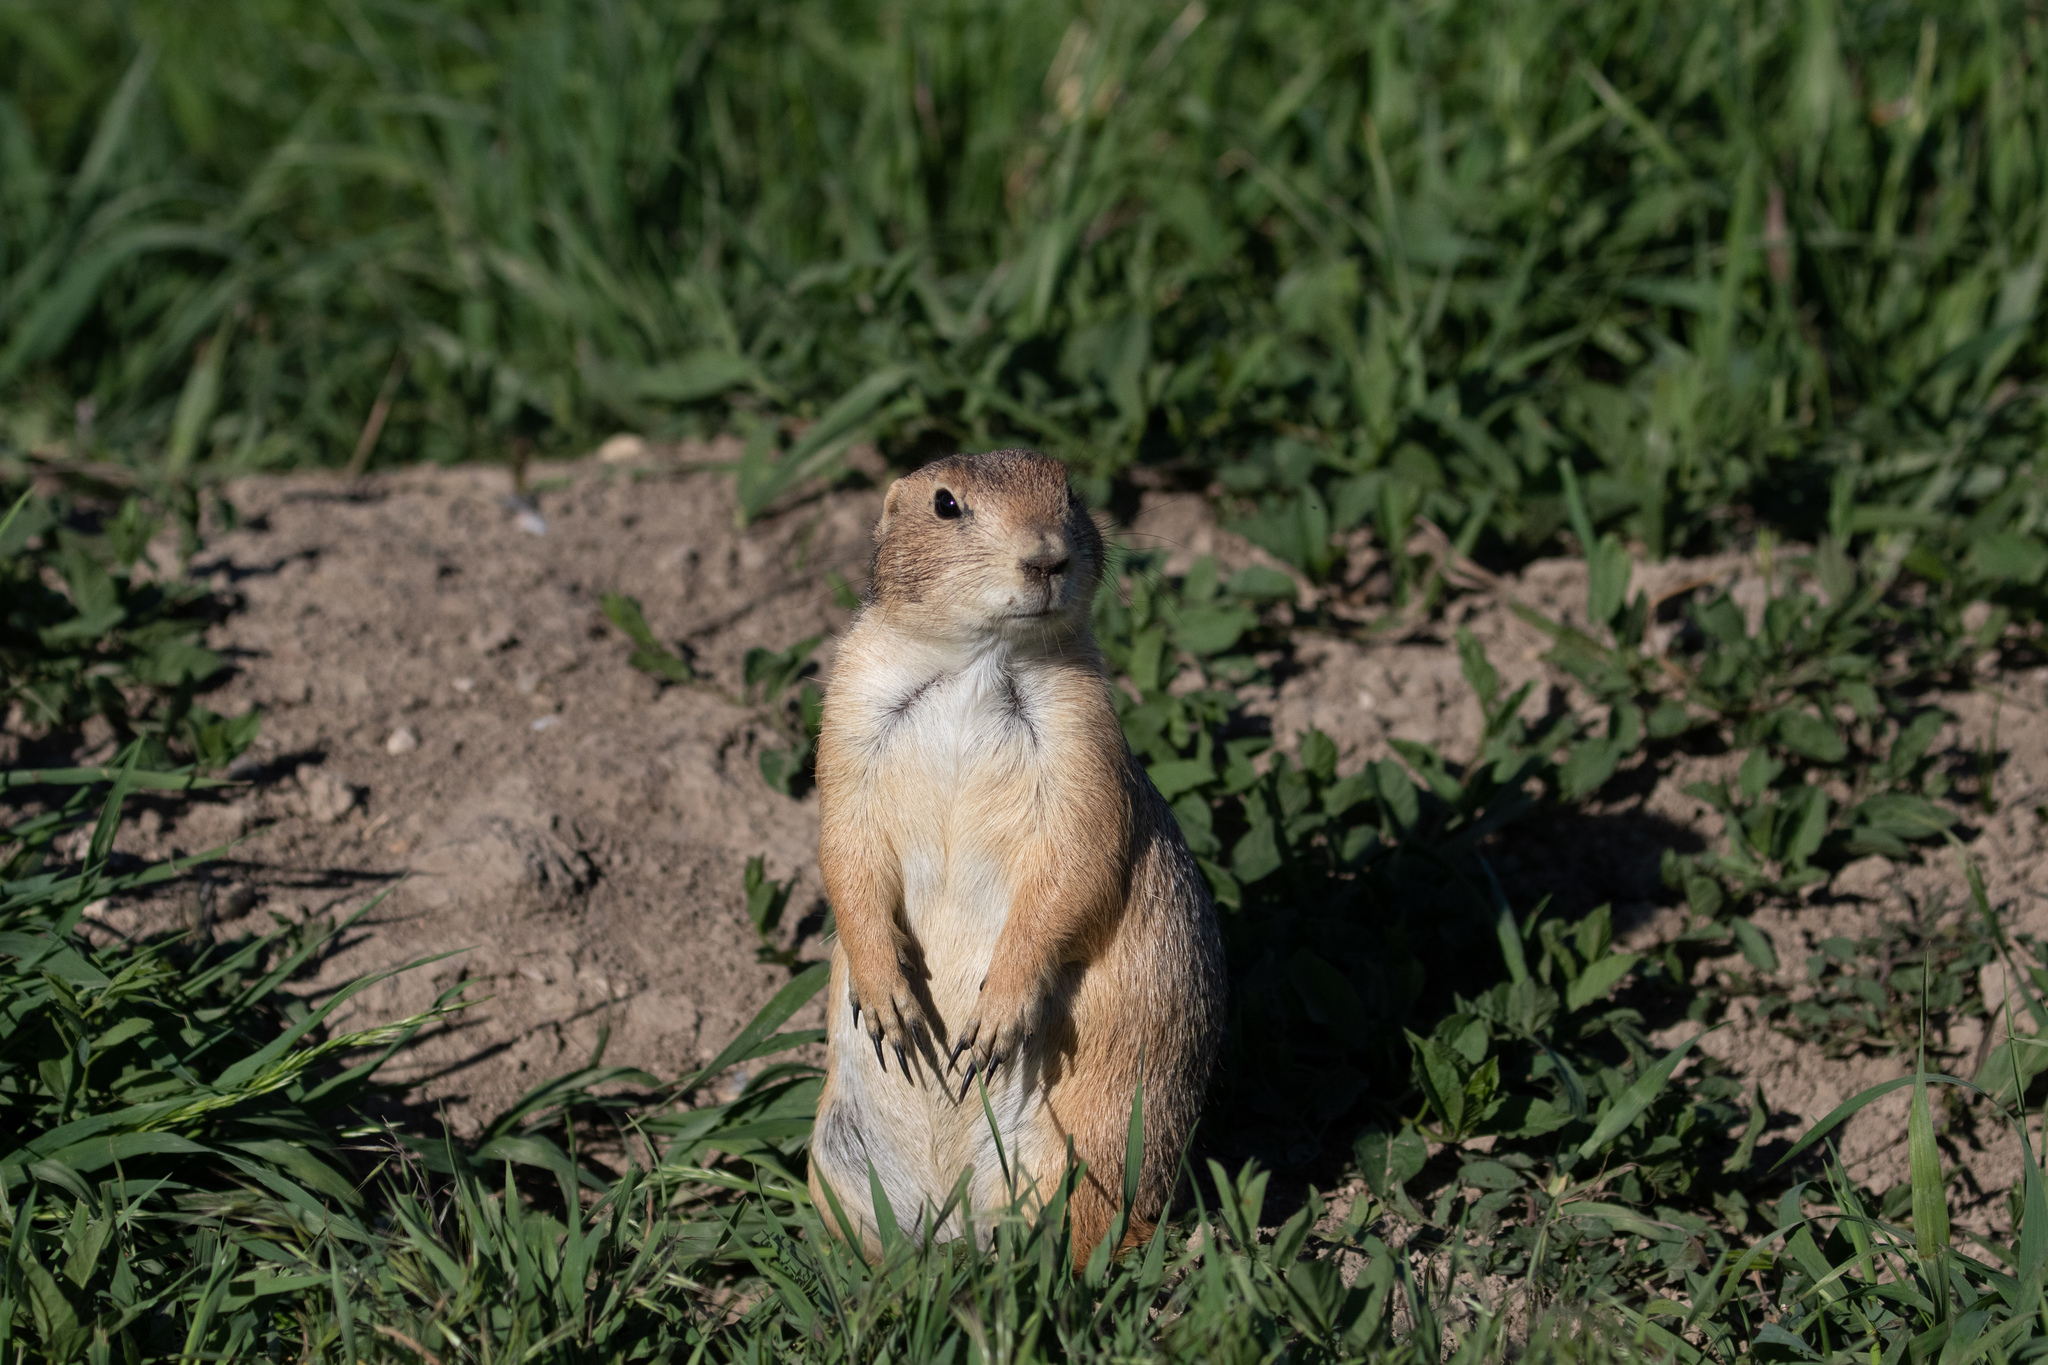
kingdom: Animalia
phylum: Chordata
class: Mammalia
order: Rodentia
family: Sciuridae
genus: Cynomys
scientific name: Cynomys ludovicianus
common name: Black-tailed prairie dog
